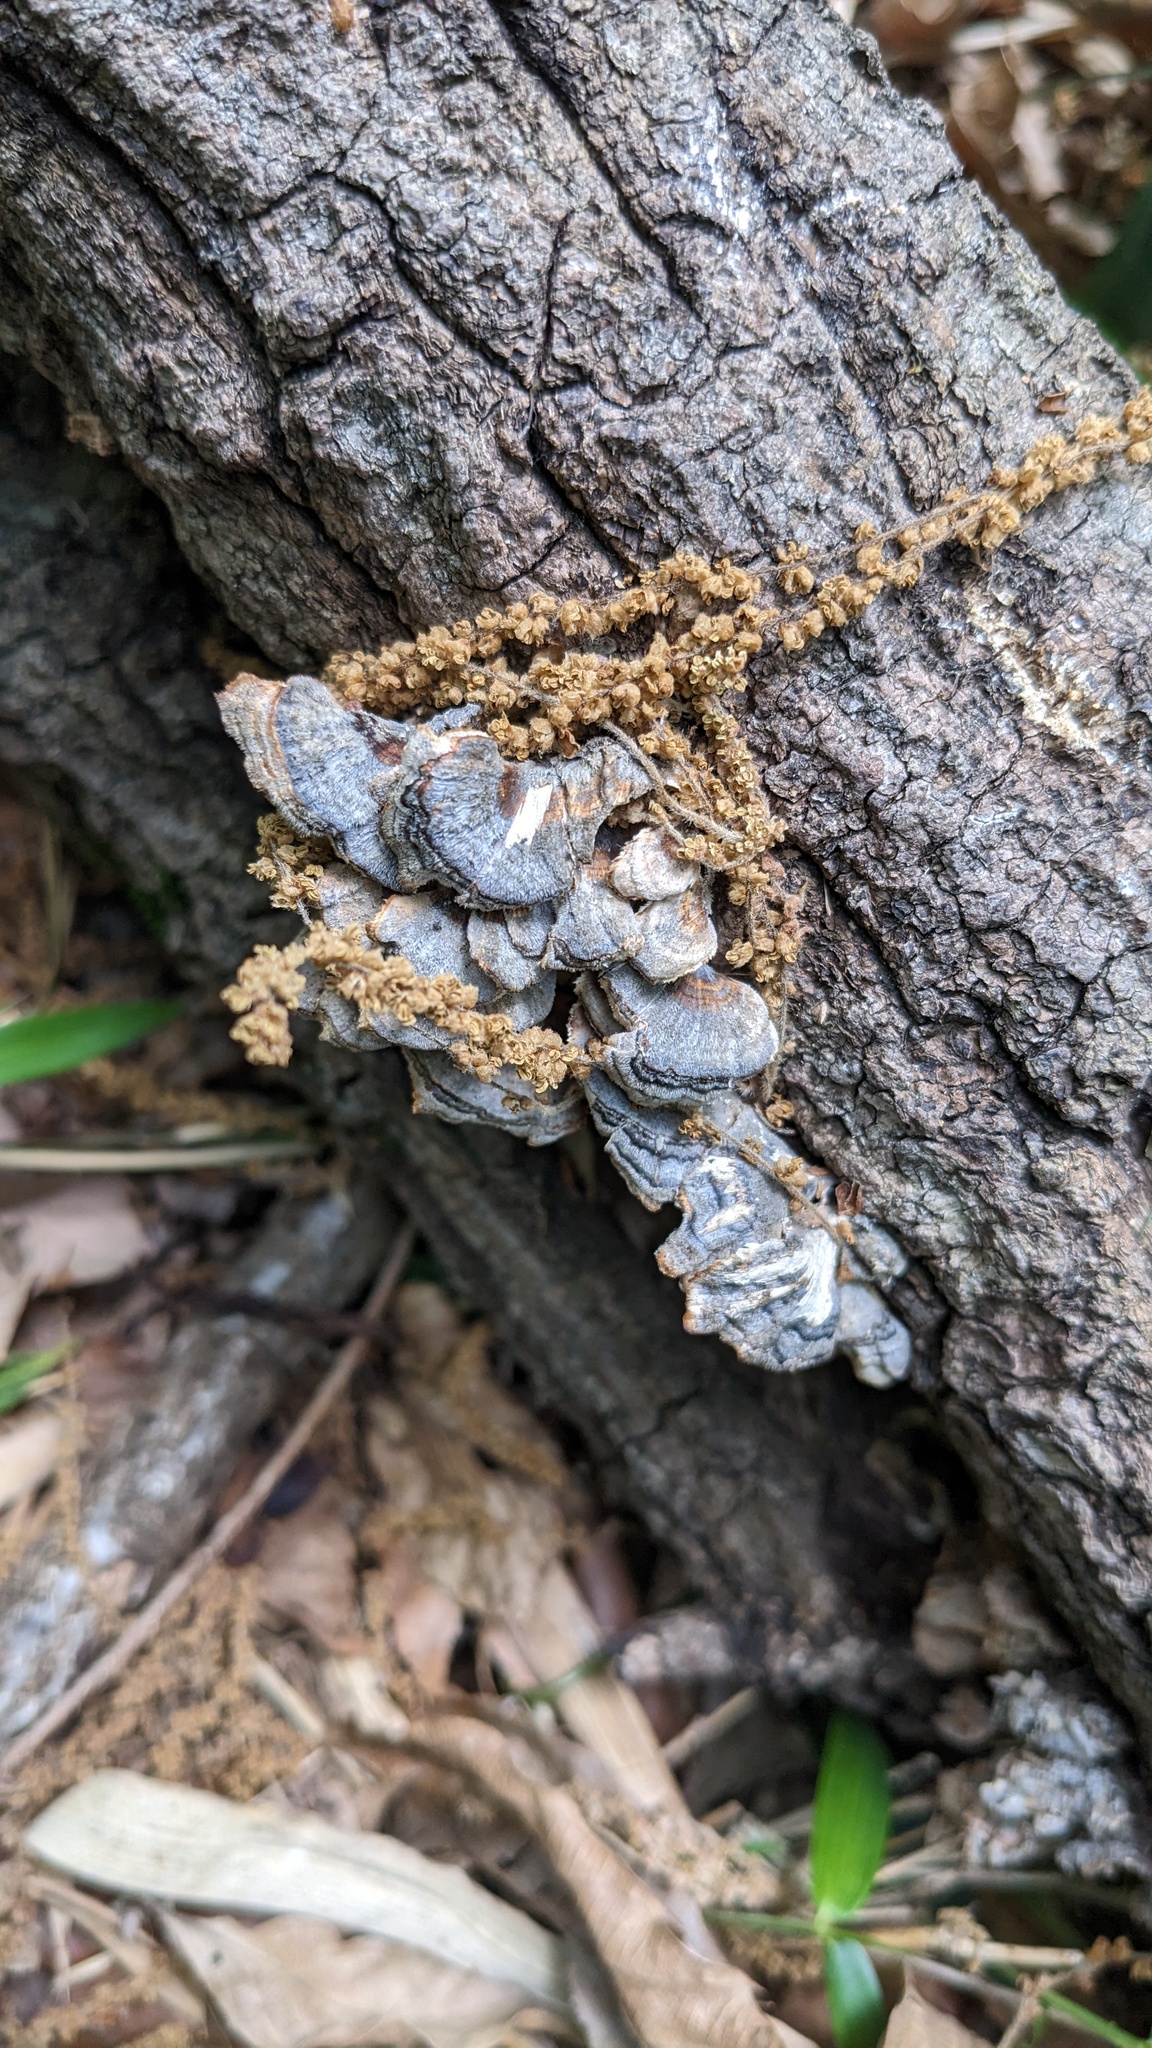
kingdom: Fungi
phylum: Basidiomycota
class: Agaricomycetes
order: Polyporales
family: Polyporaceae
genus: Trametes
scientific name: Trametes versicolor
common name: Turkeytail
